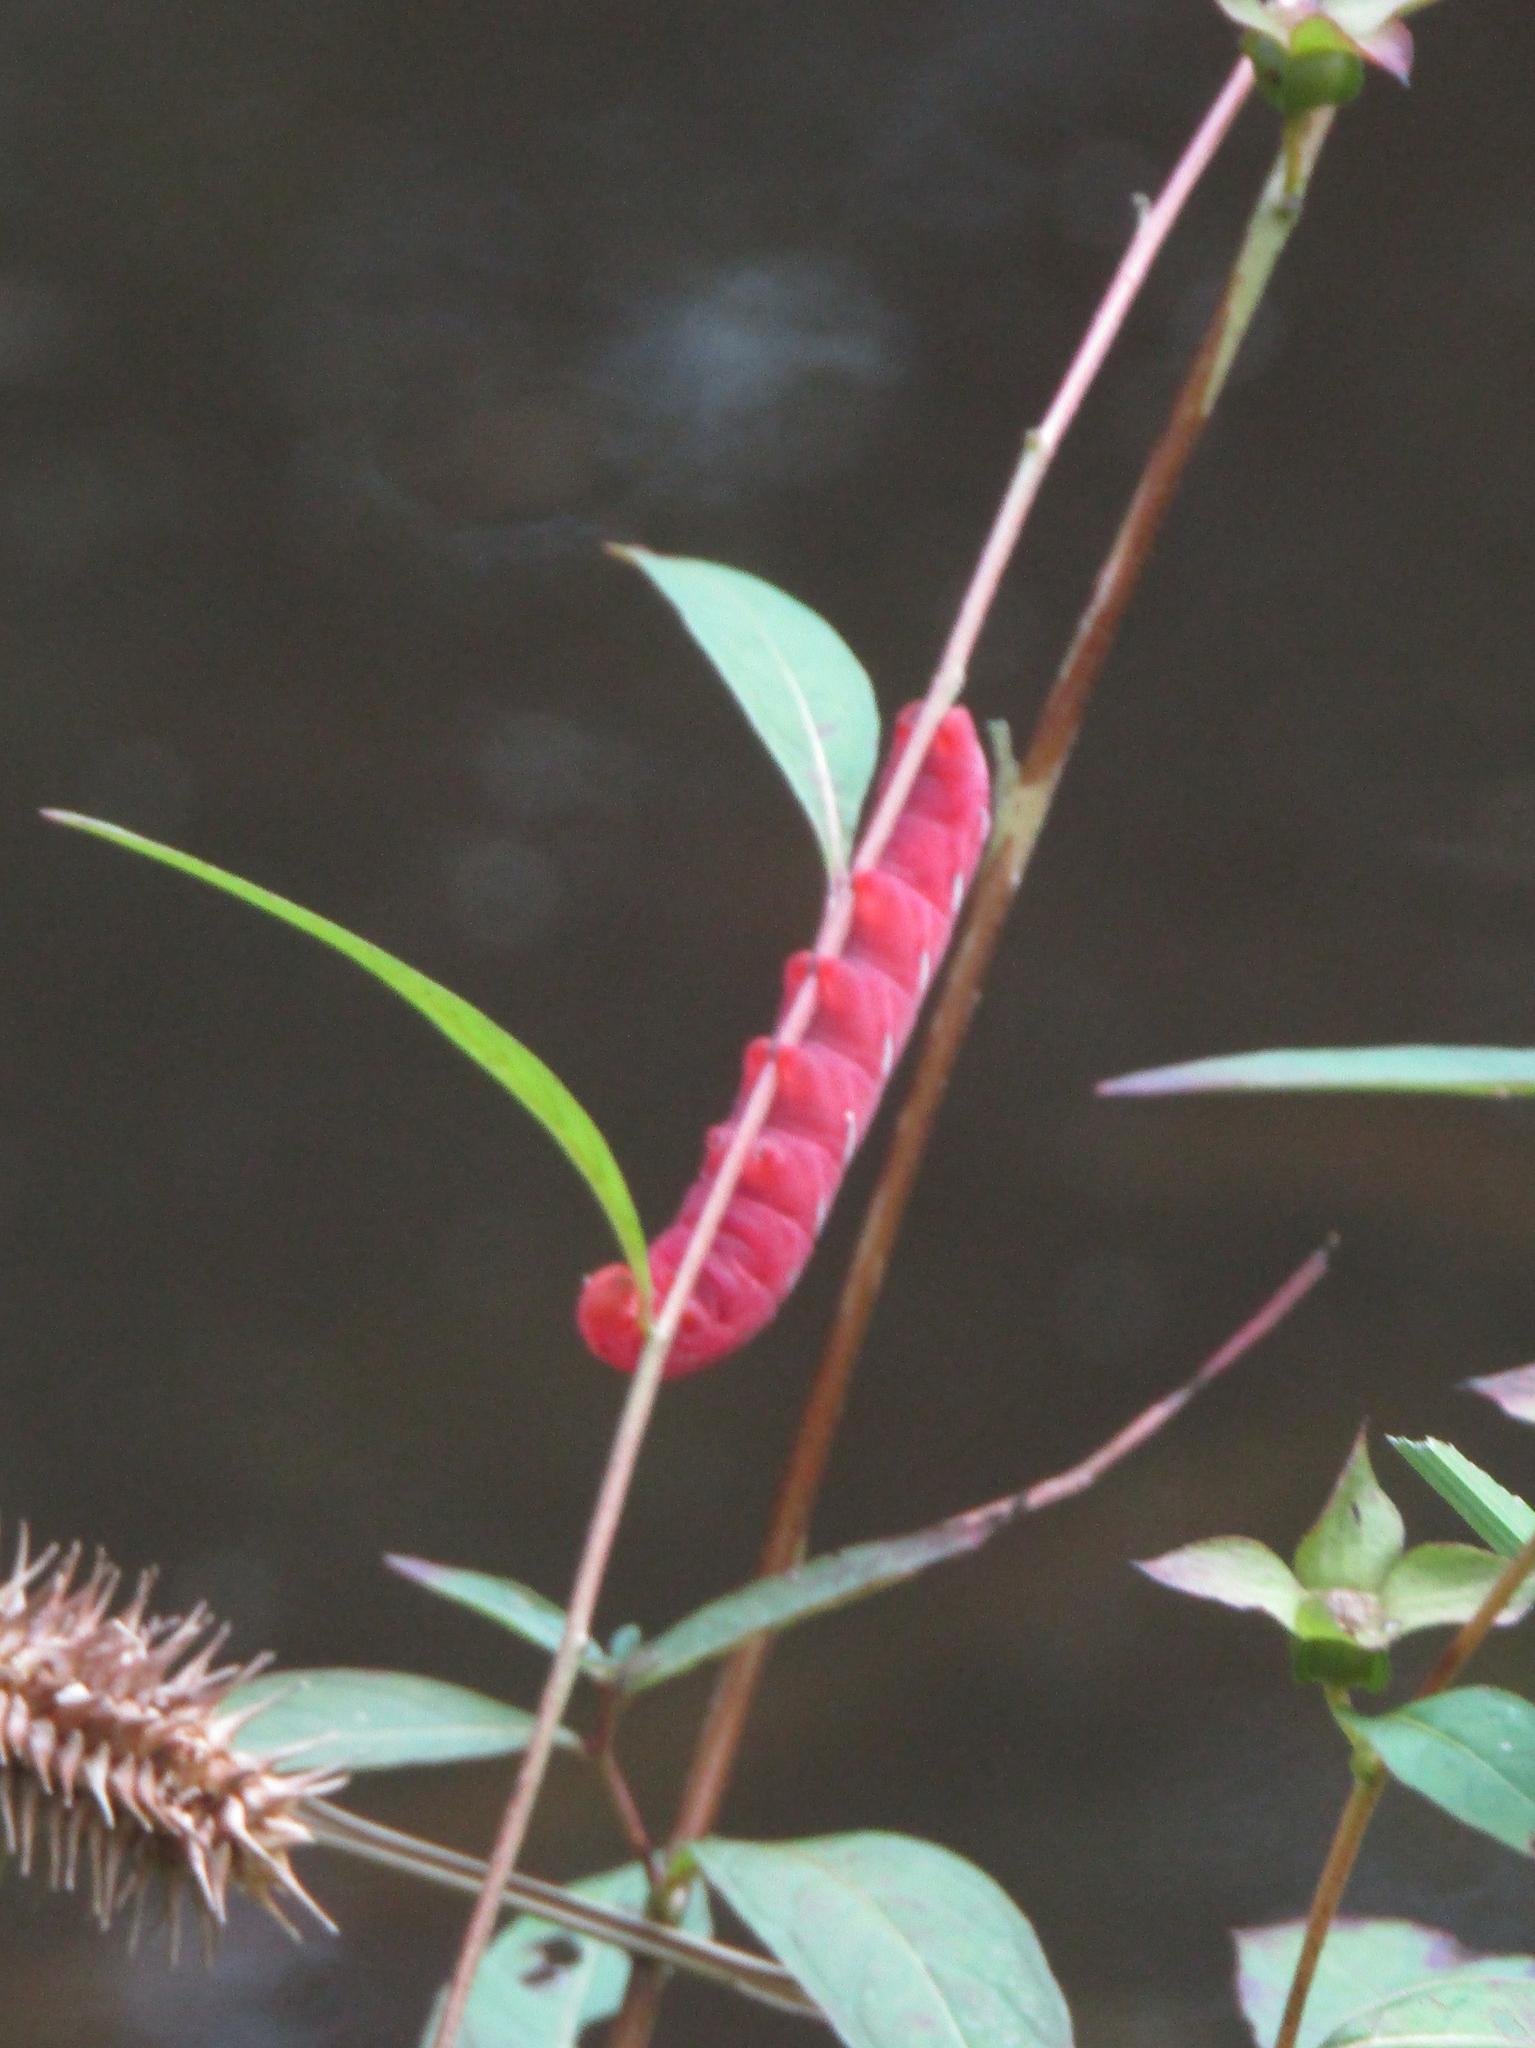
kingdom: Animalia
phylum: Arthropoda
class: Insecta
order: Lepidoptera
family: Sphingidae
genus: Eumorpha
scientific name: Eumorpha fasciatus
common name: Banded sphinx
